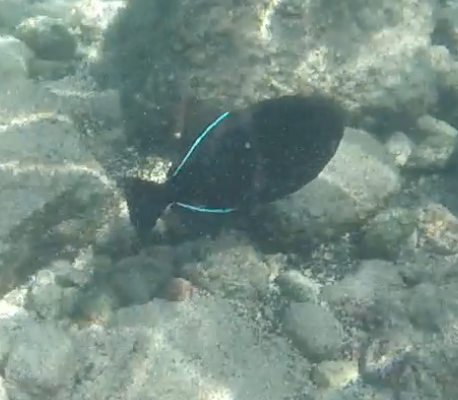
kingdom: Animalia
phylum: Chordata
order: Tetraodontiformes
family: Balistidae
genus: Melichthys
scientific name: Melichthys niger
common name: Black durgon
